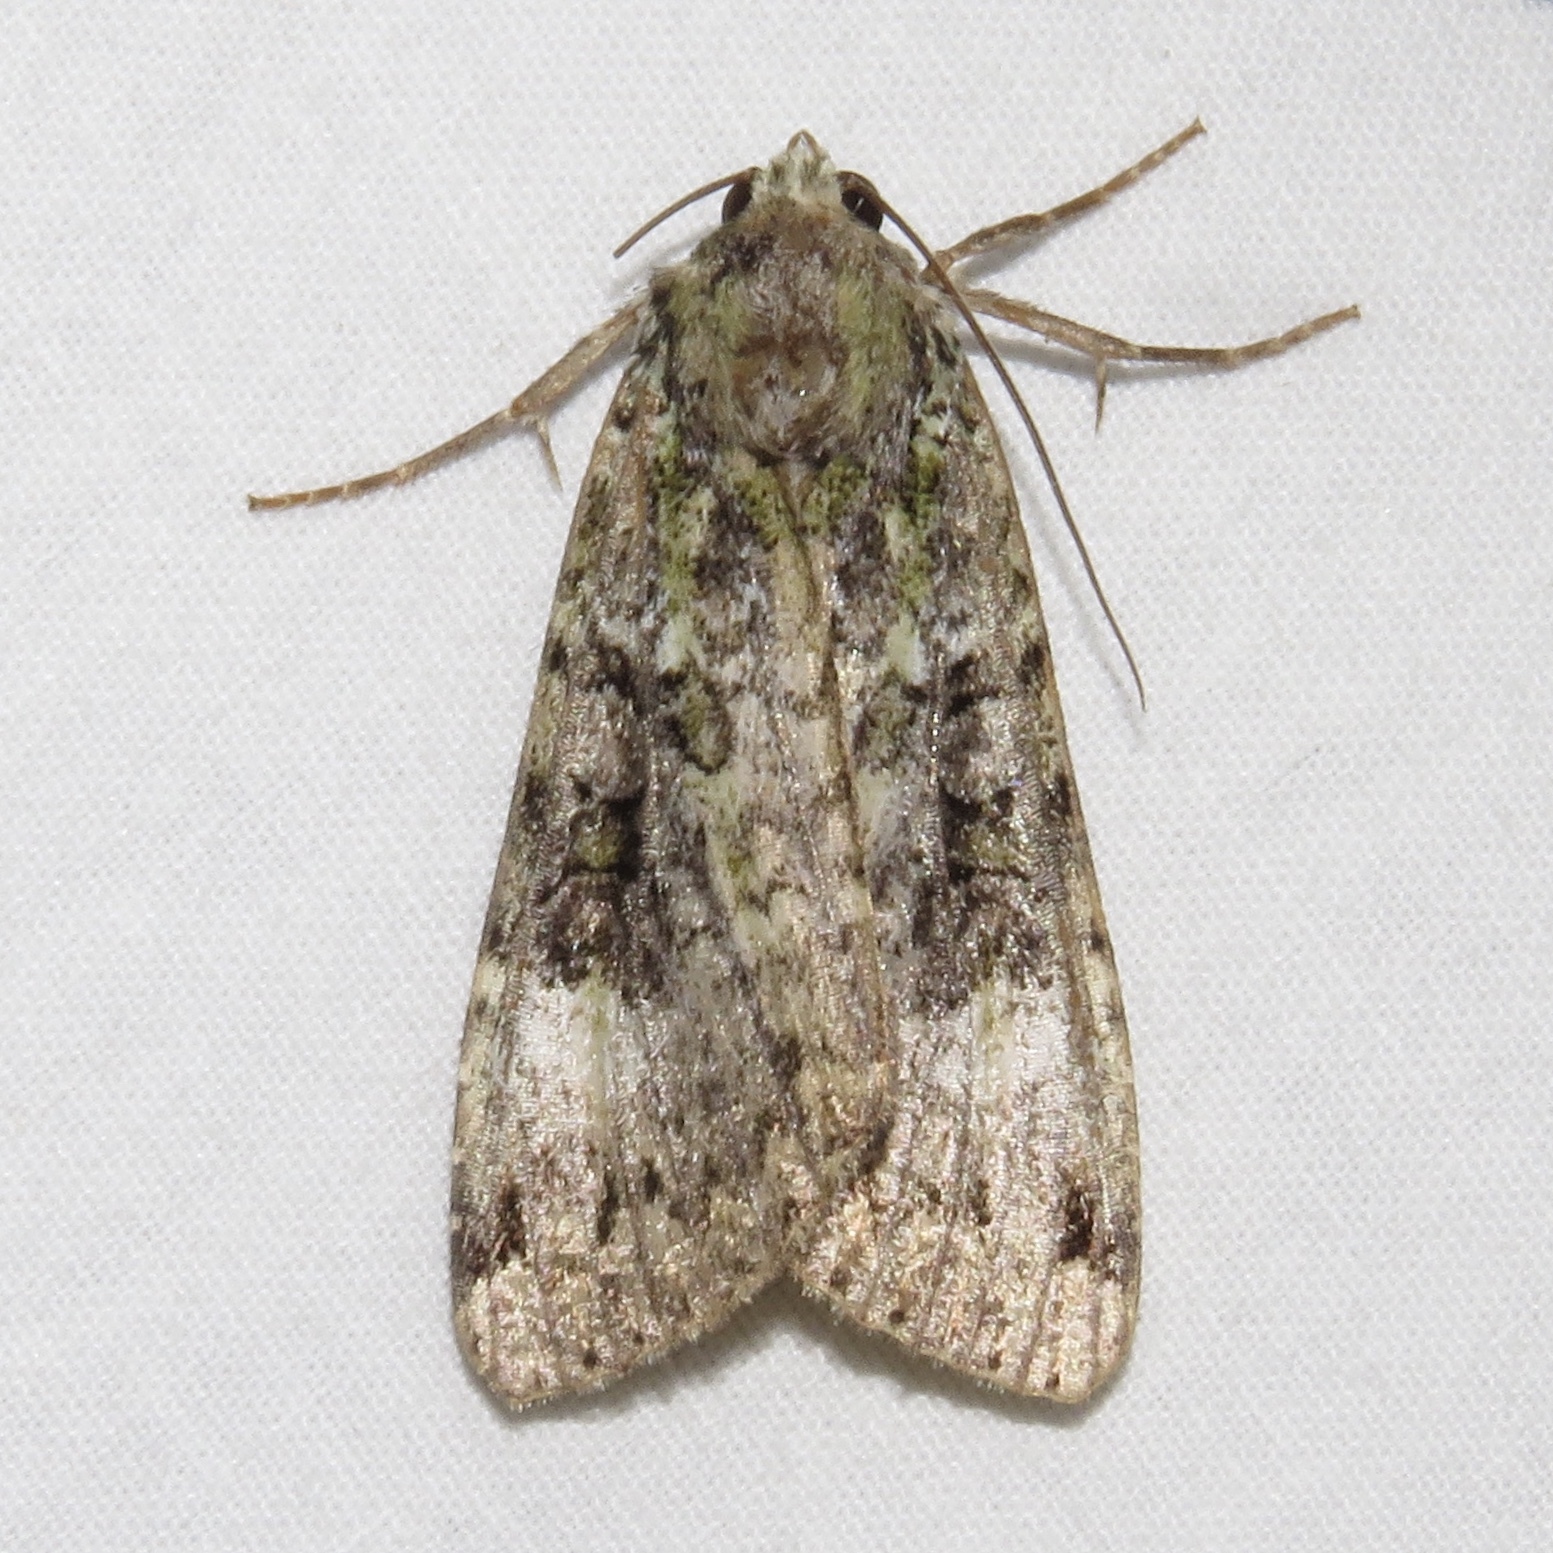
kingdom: Animalia
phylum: Arthropoda
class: Insecta
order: Lepidoptera
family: Noctuidae
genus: Anaplectoides
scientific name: Anaplectoides prasina
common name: Green arches
